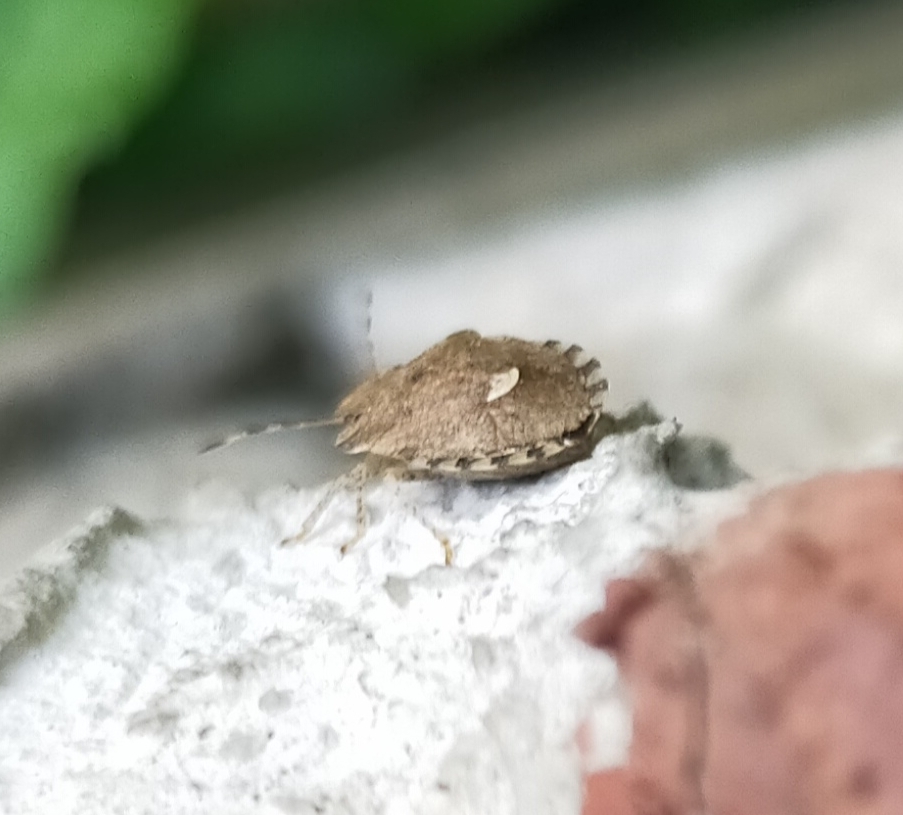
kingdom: Animalia
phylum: Arthropoda
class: Insecta
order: Hemiptera
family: Pentatomidae
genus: Dyroderes
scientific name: Dyroderes umbraculatus
